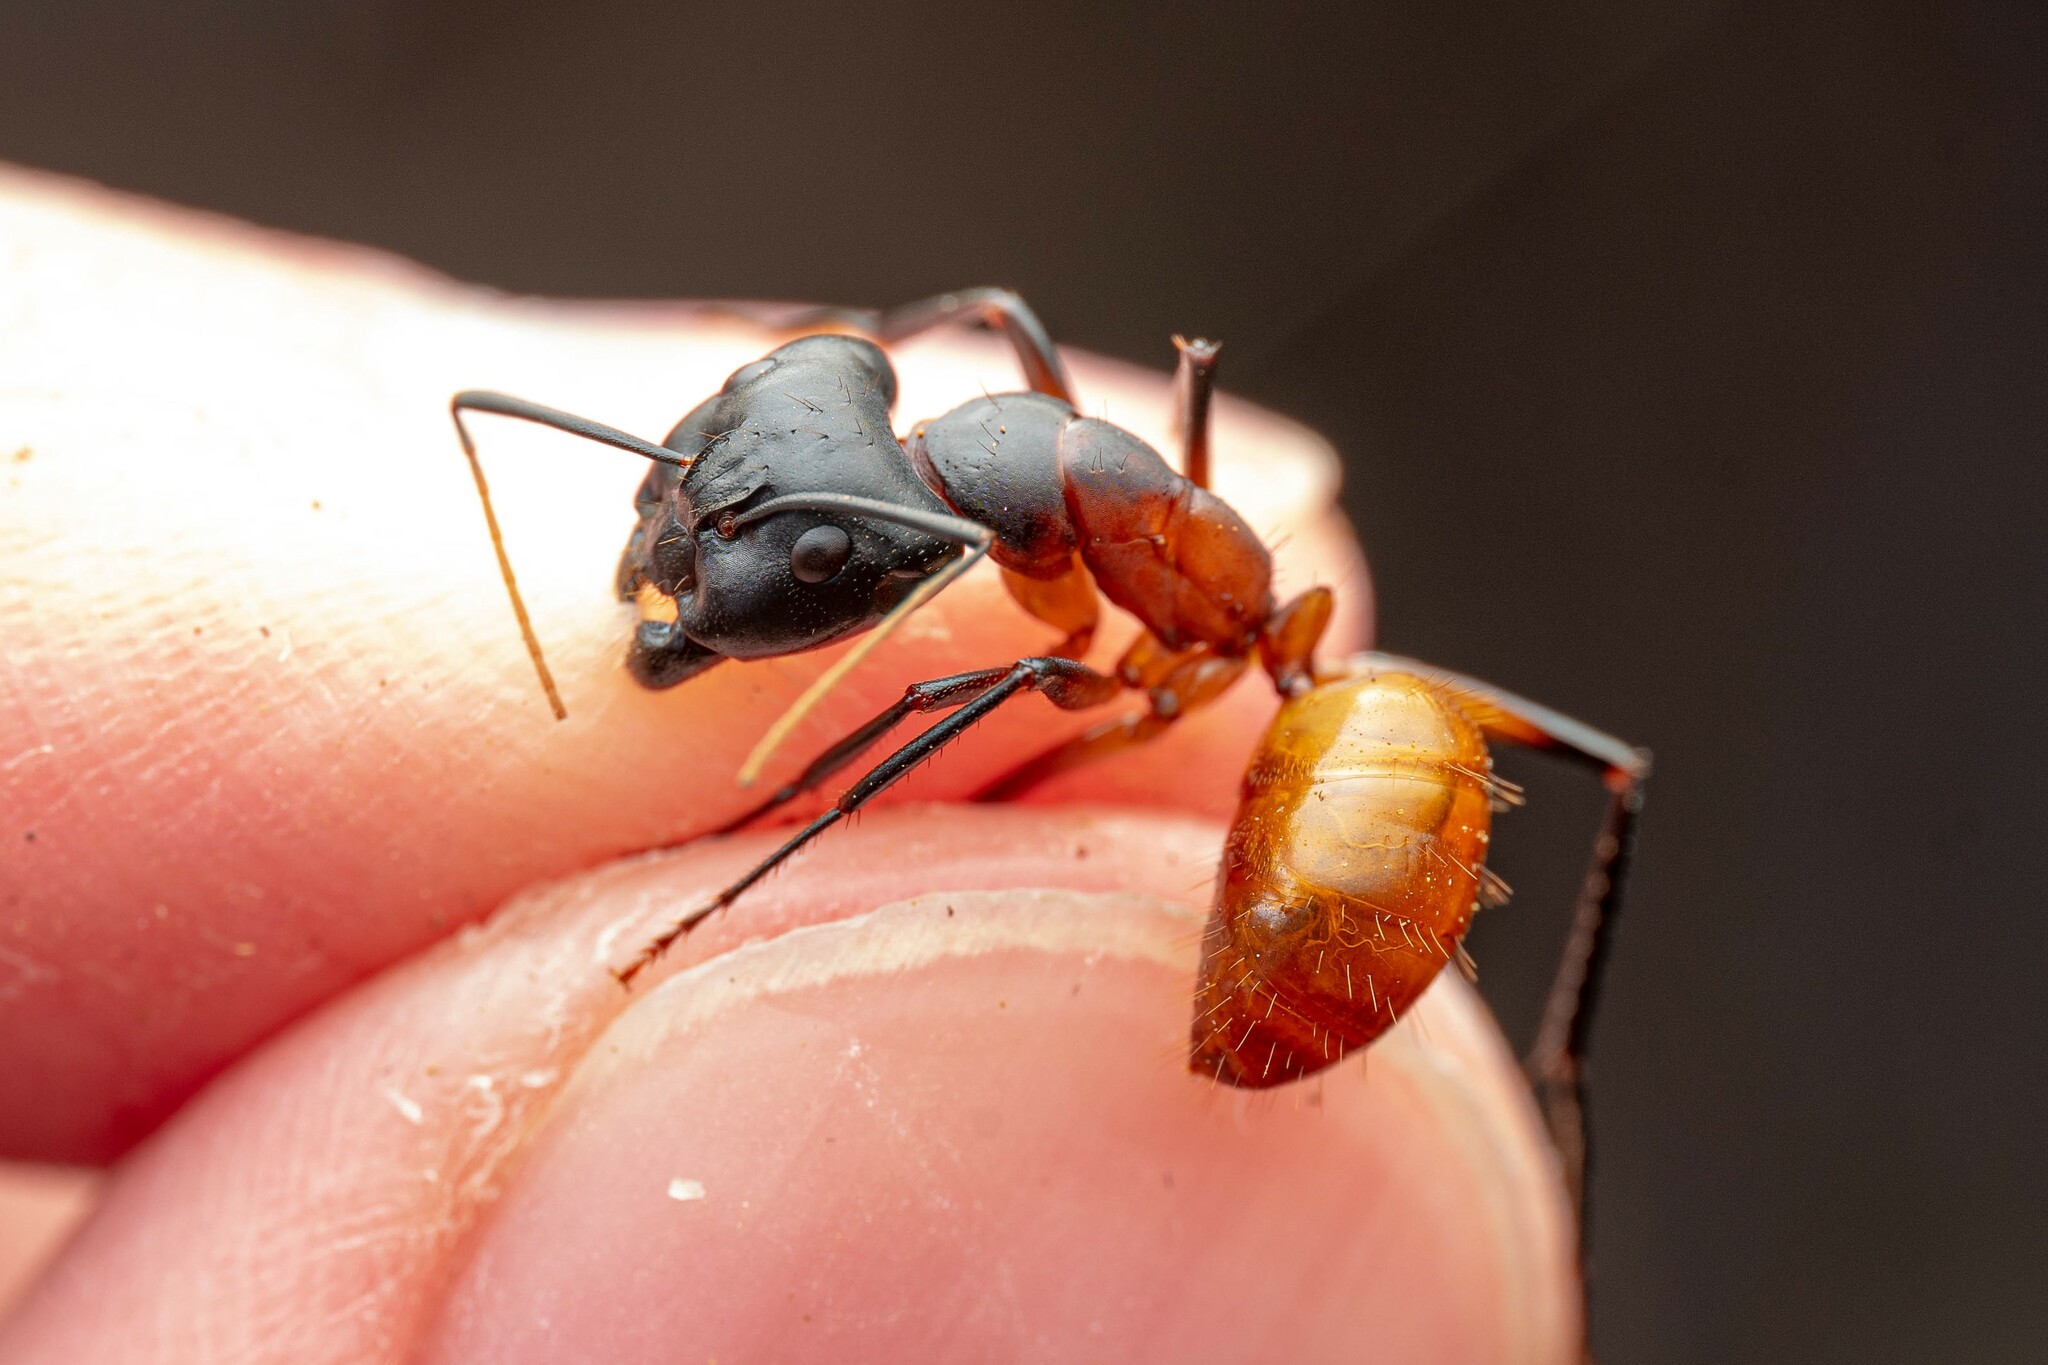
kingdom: Animalia
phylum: Arthropoda
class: Insecta
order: Hymenoptera
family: Formicidae
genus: Camponotus
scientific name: Camponotus ocreatus
